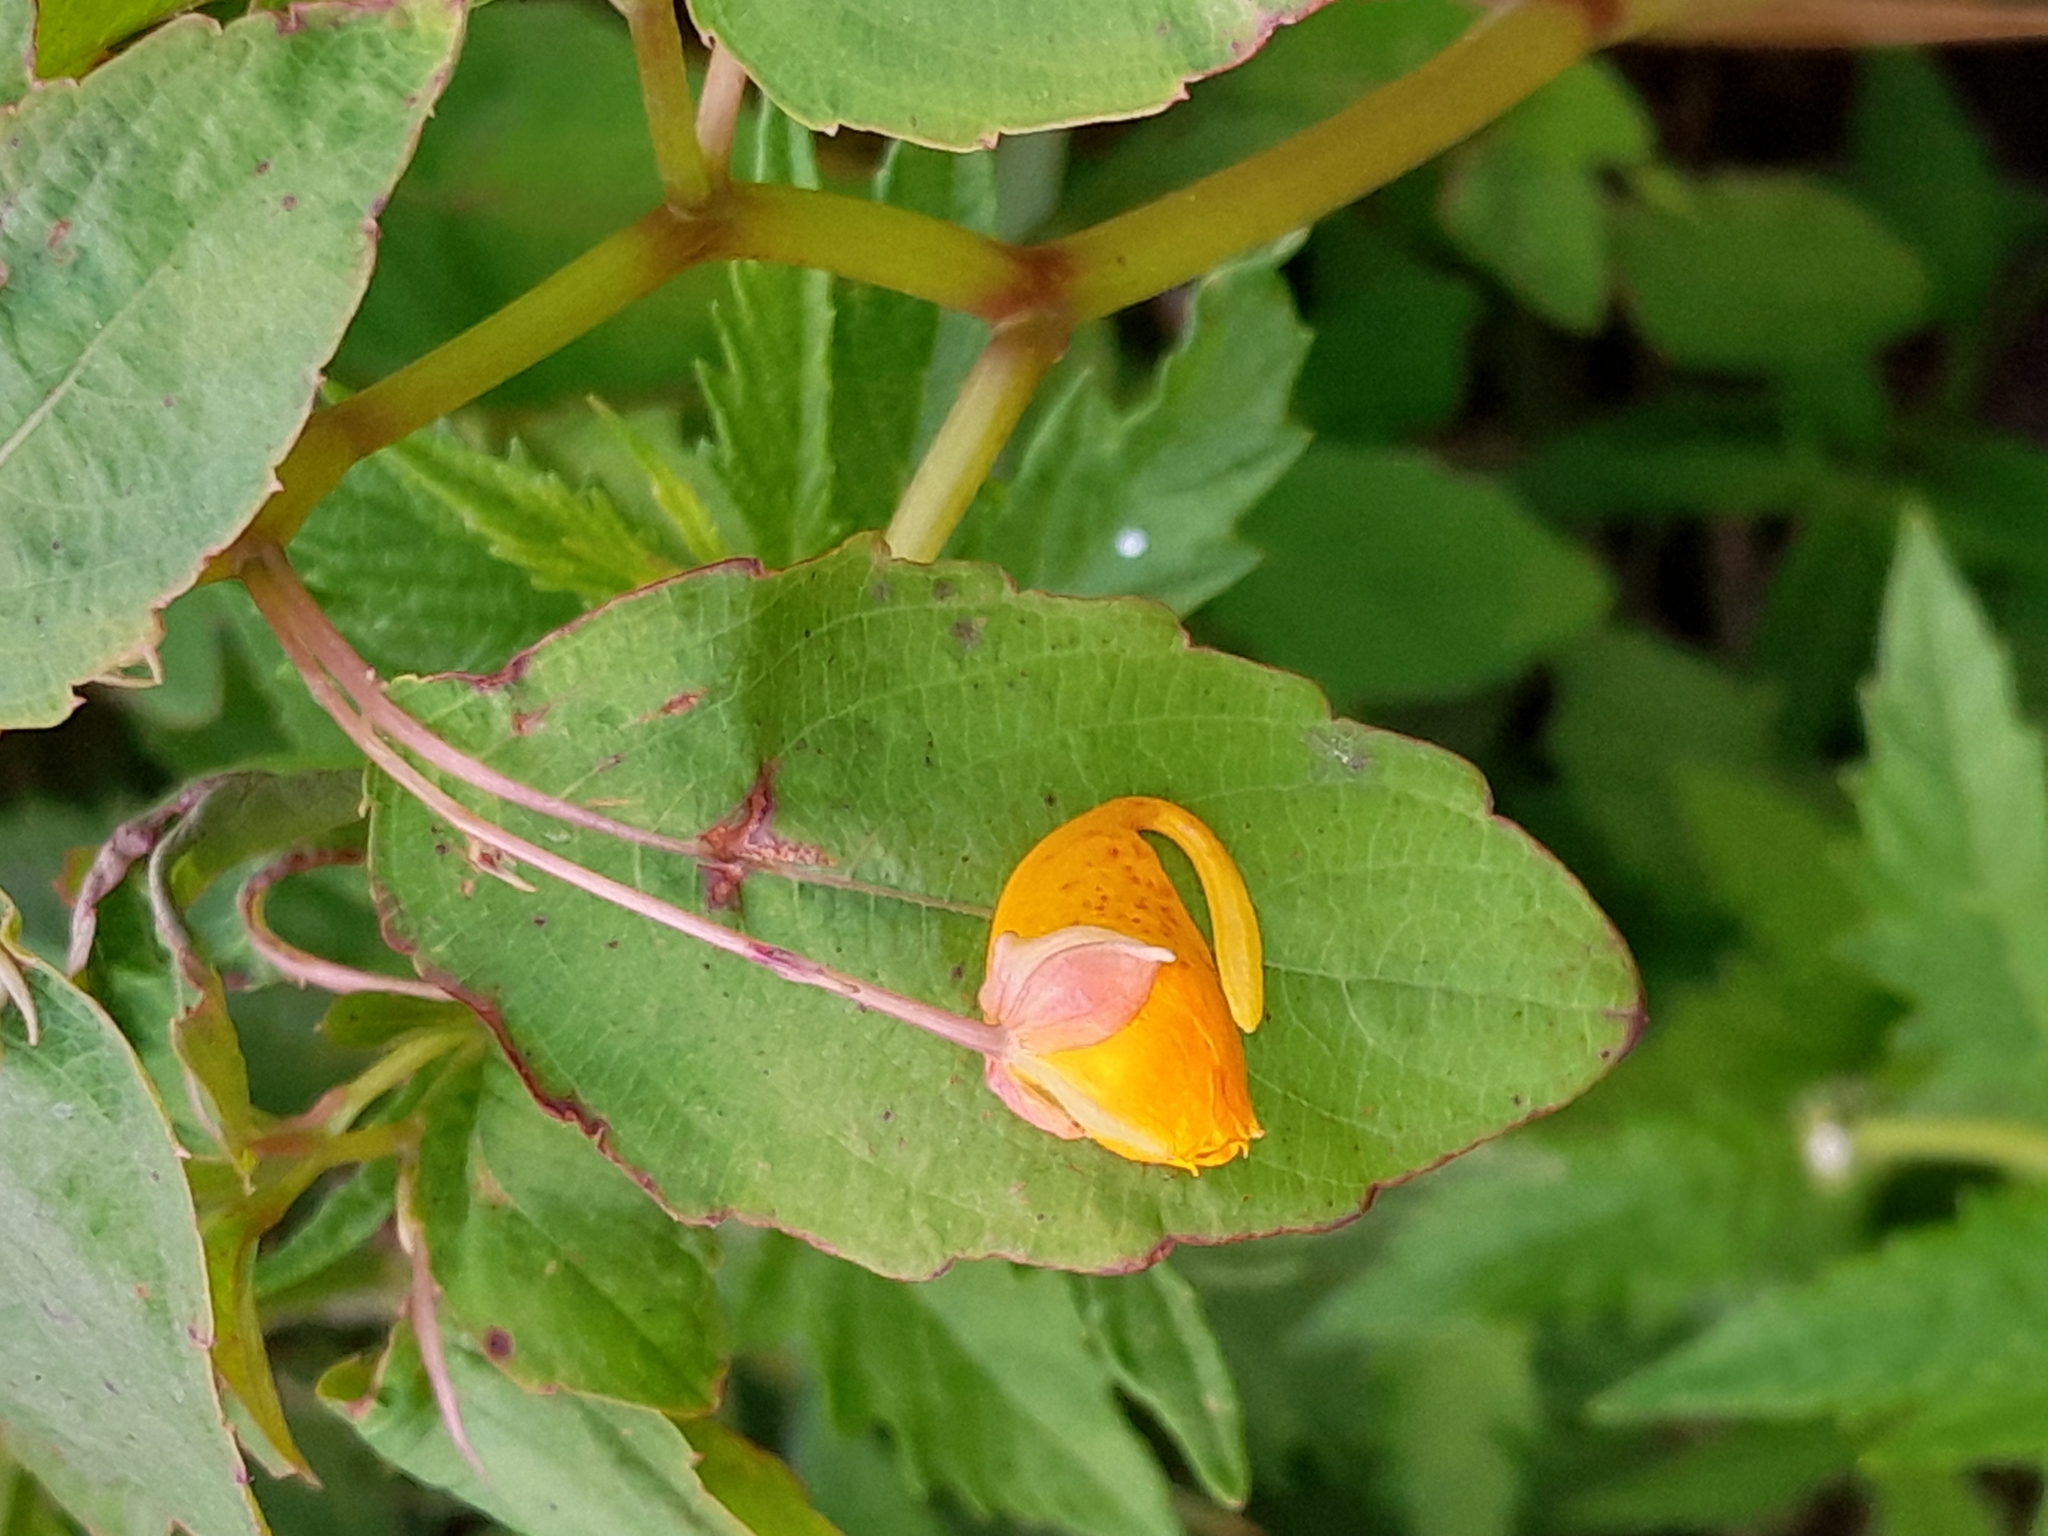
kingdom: Plantae
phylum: Tracheophyta
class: Magnoliopsida
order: Ericales
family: Balsaminaceae
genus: Impatiens
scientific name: Impatiens capensis
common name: Orange balsam
